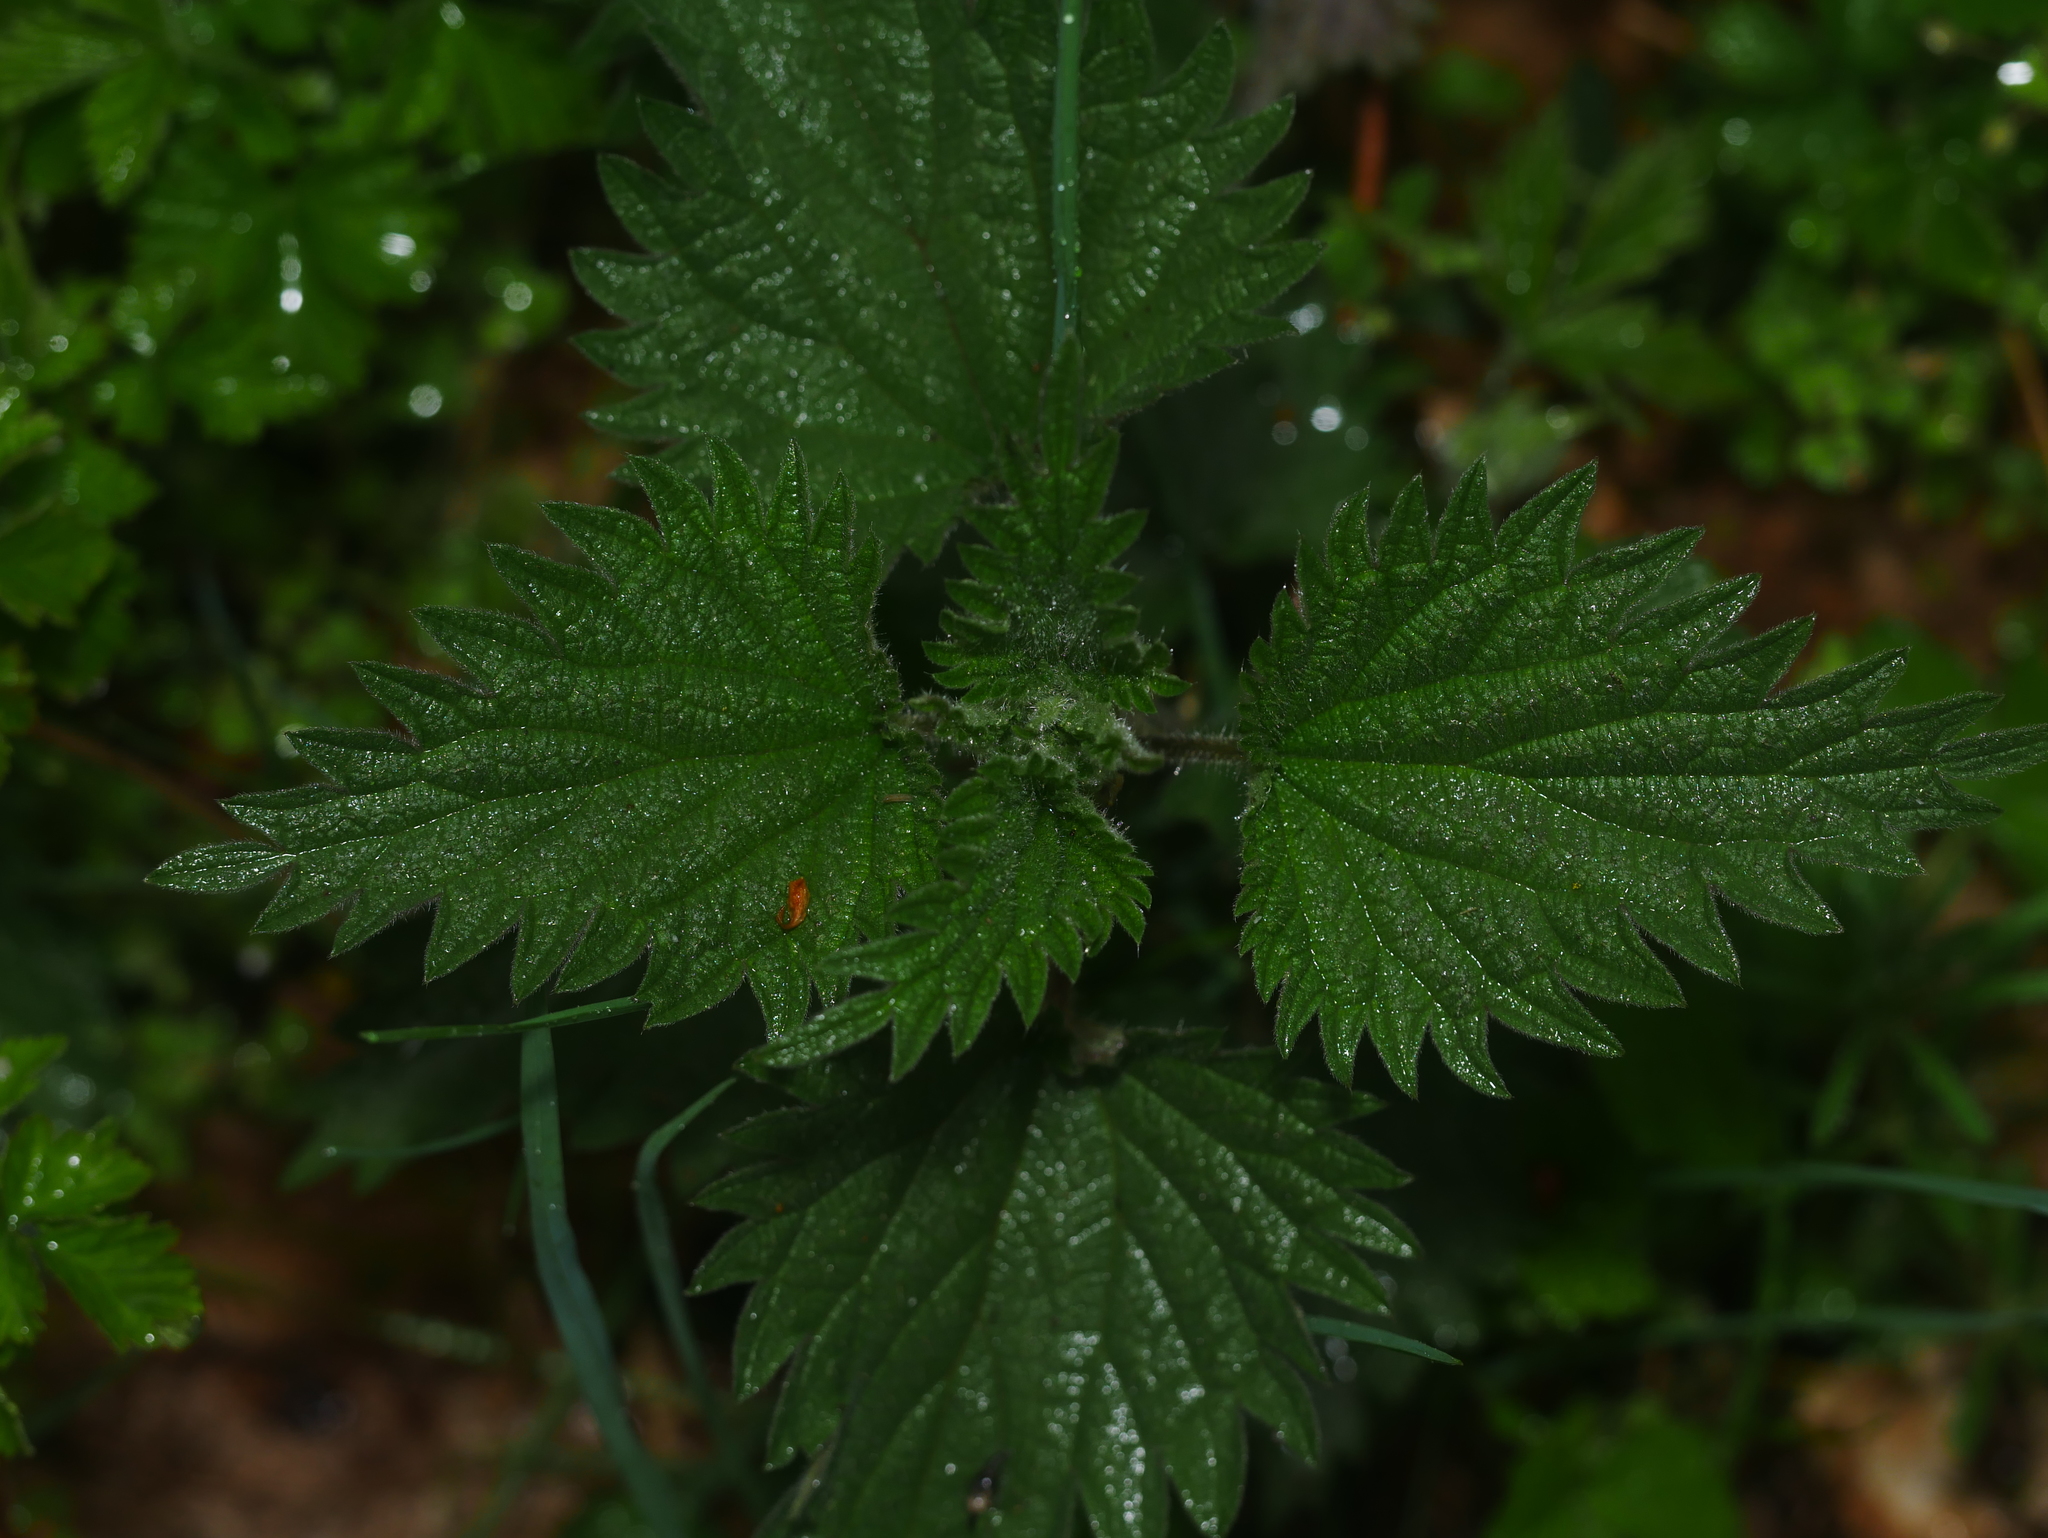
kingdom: Plantae
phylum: Tracheophyta
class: Magnoliopsida
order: Rosales
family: Urticaceae
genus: Urtica
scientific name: Urtica dioica
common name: Common nettle
